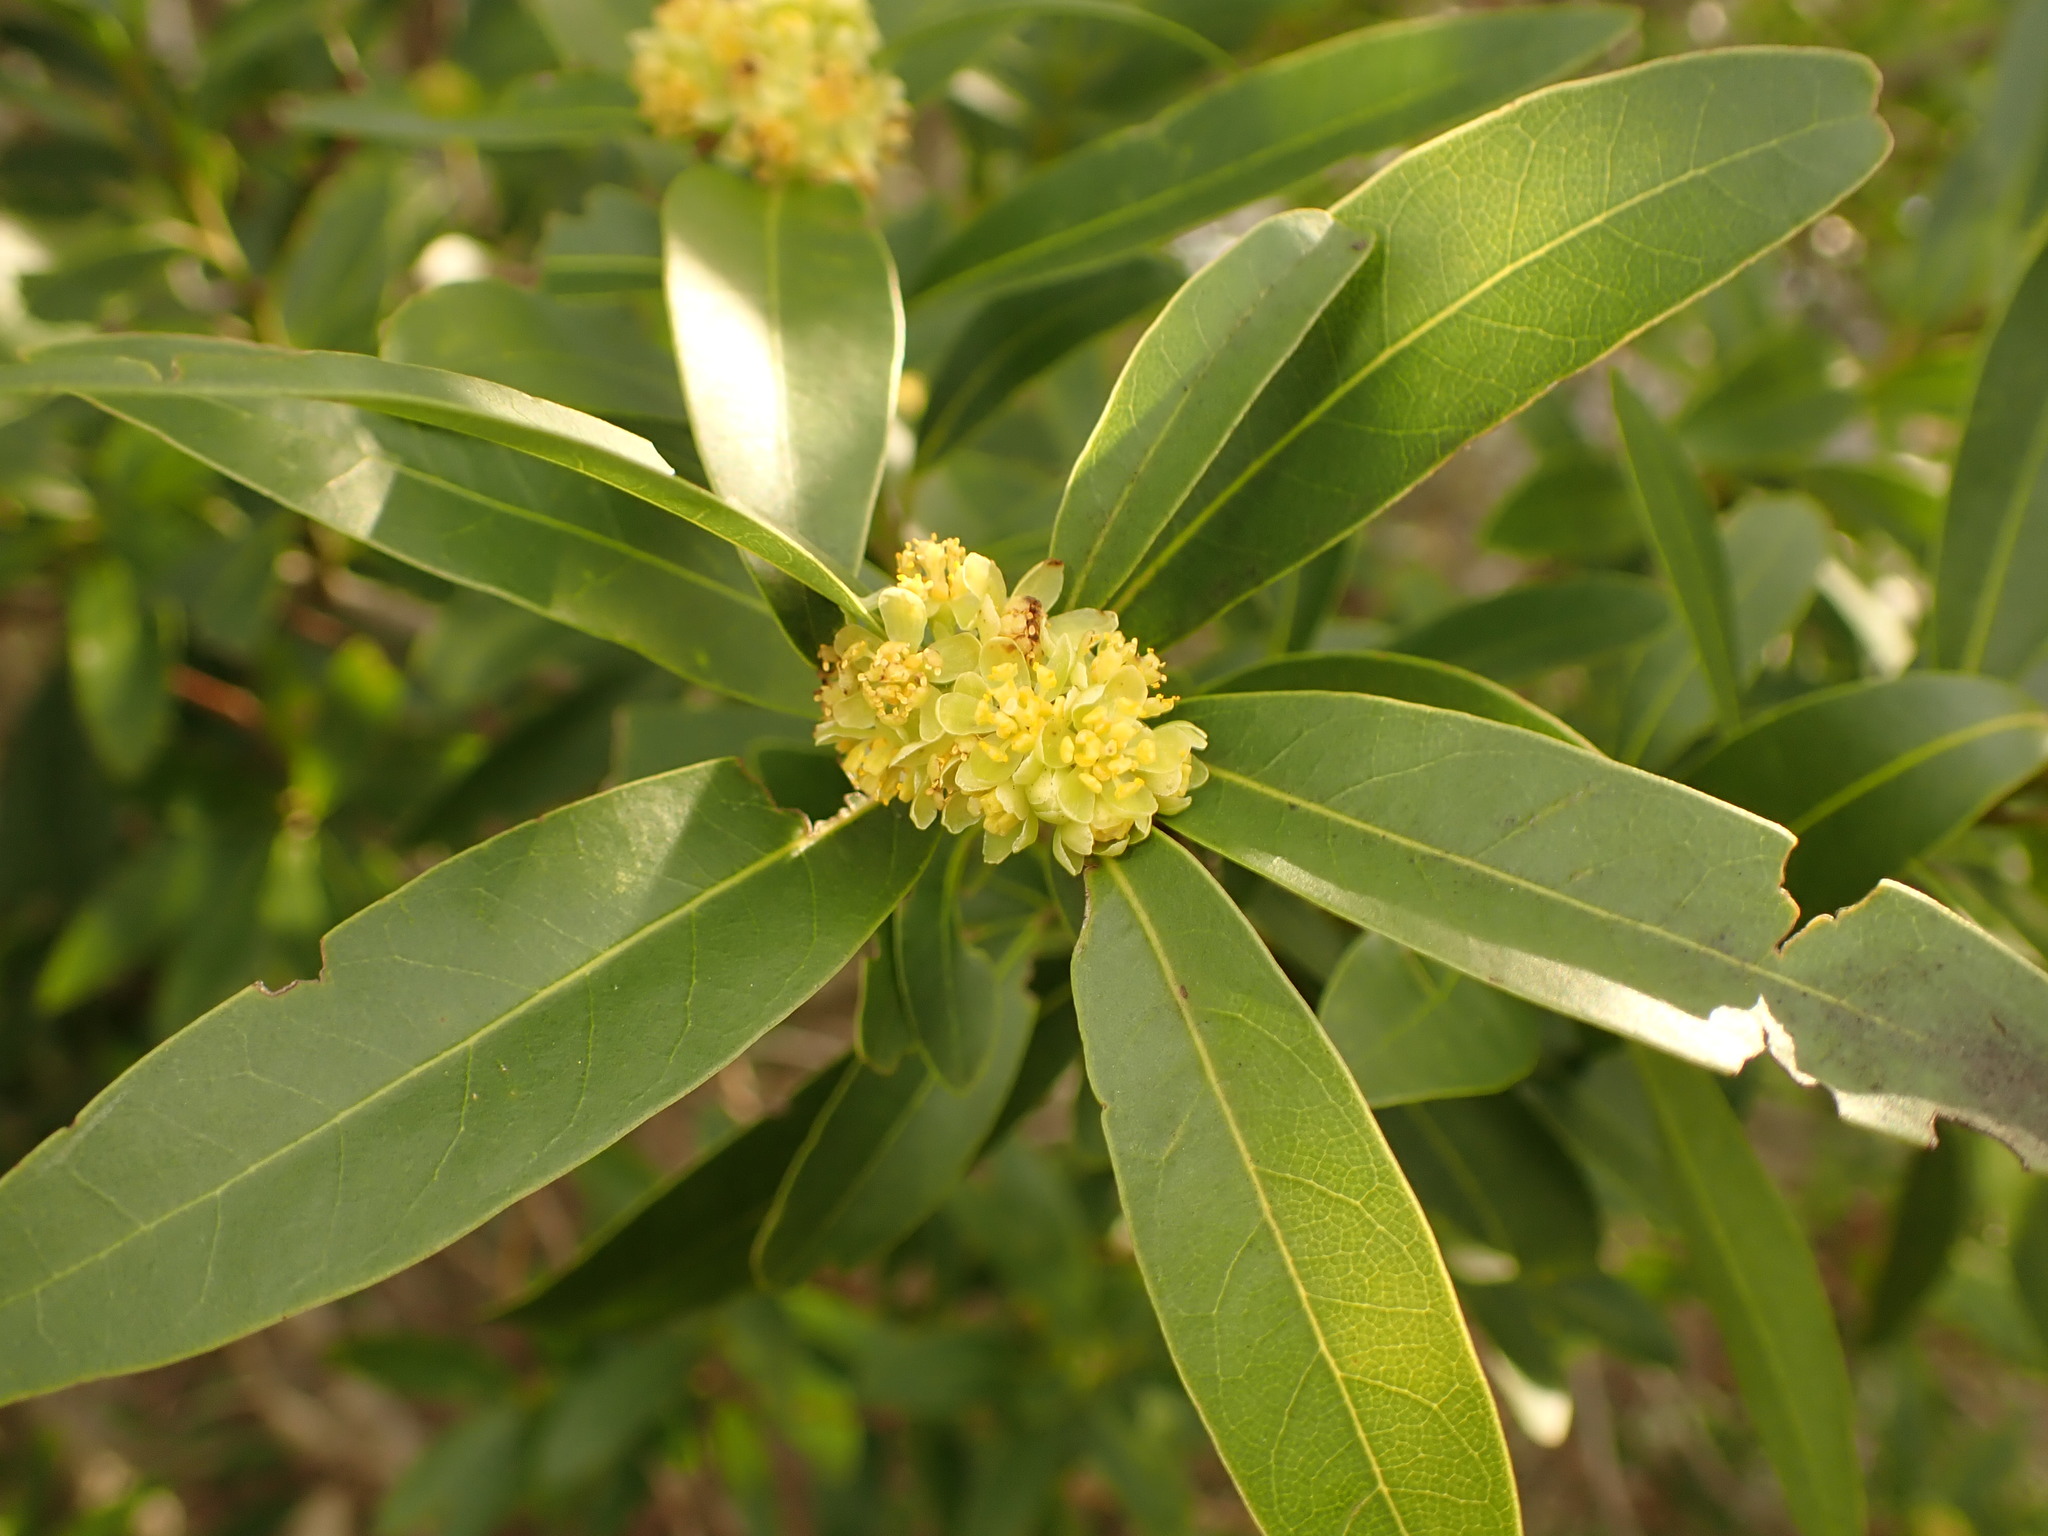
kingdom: Plantae
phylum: Tracheophyta
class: Magnoliopsida
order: Laurales
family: Lauraceae
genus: Umbellularia
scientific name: Umbellularia californica
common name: California bay
